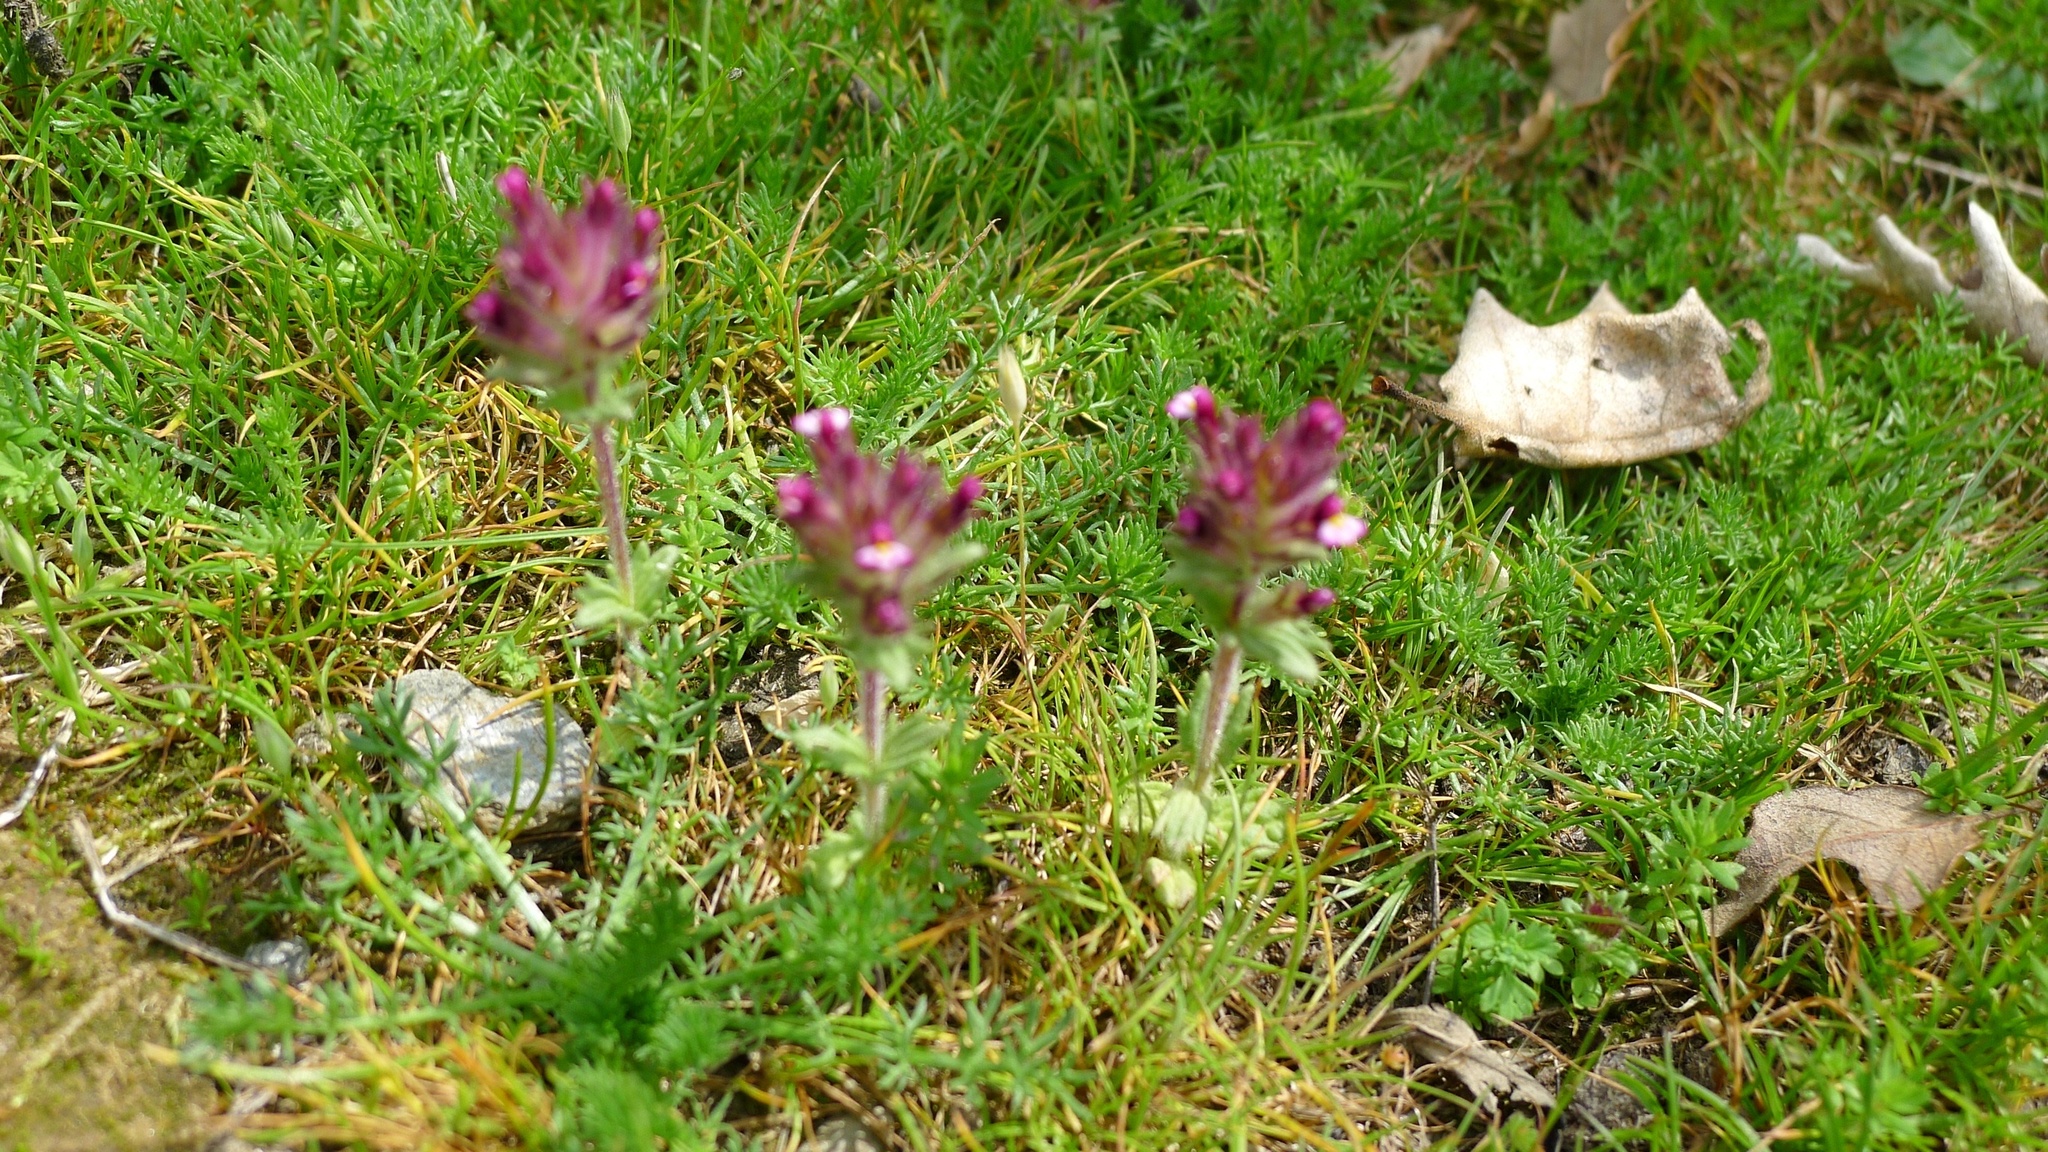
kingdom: Plantae
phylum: Tracheophyta
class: Magnoliopsida
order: Lamiales
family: Orobanchaceae
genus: Parentucellia
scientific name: Parentucellia latifolia
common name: Broadleaf glandweed
